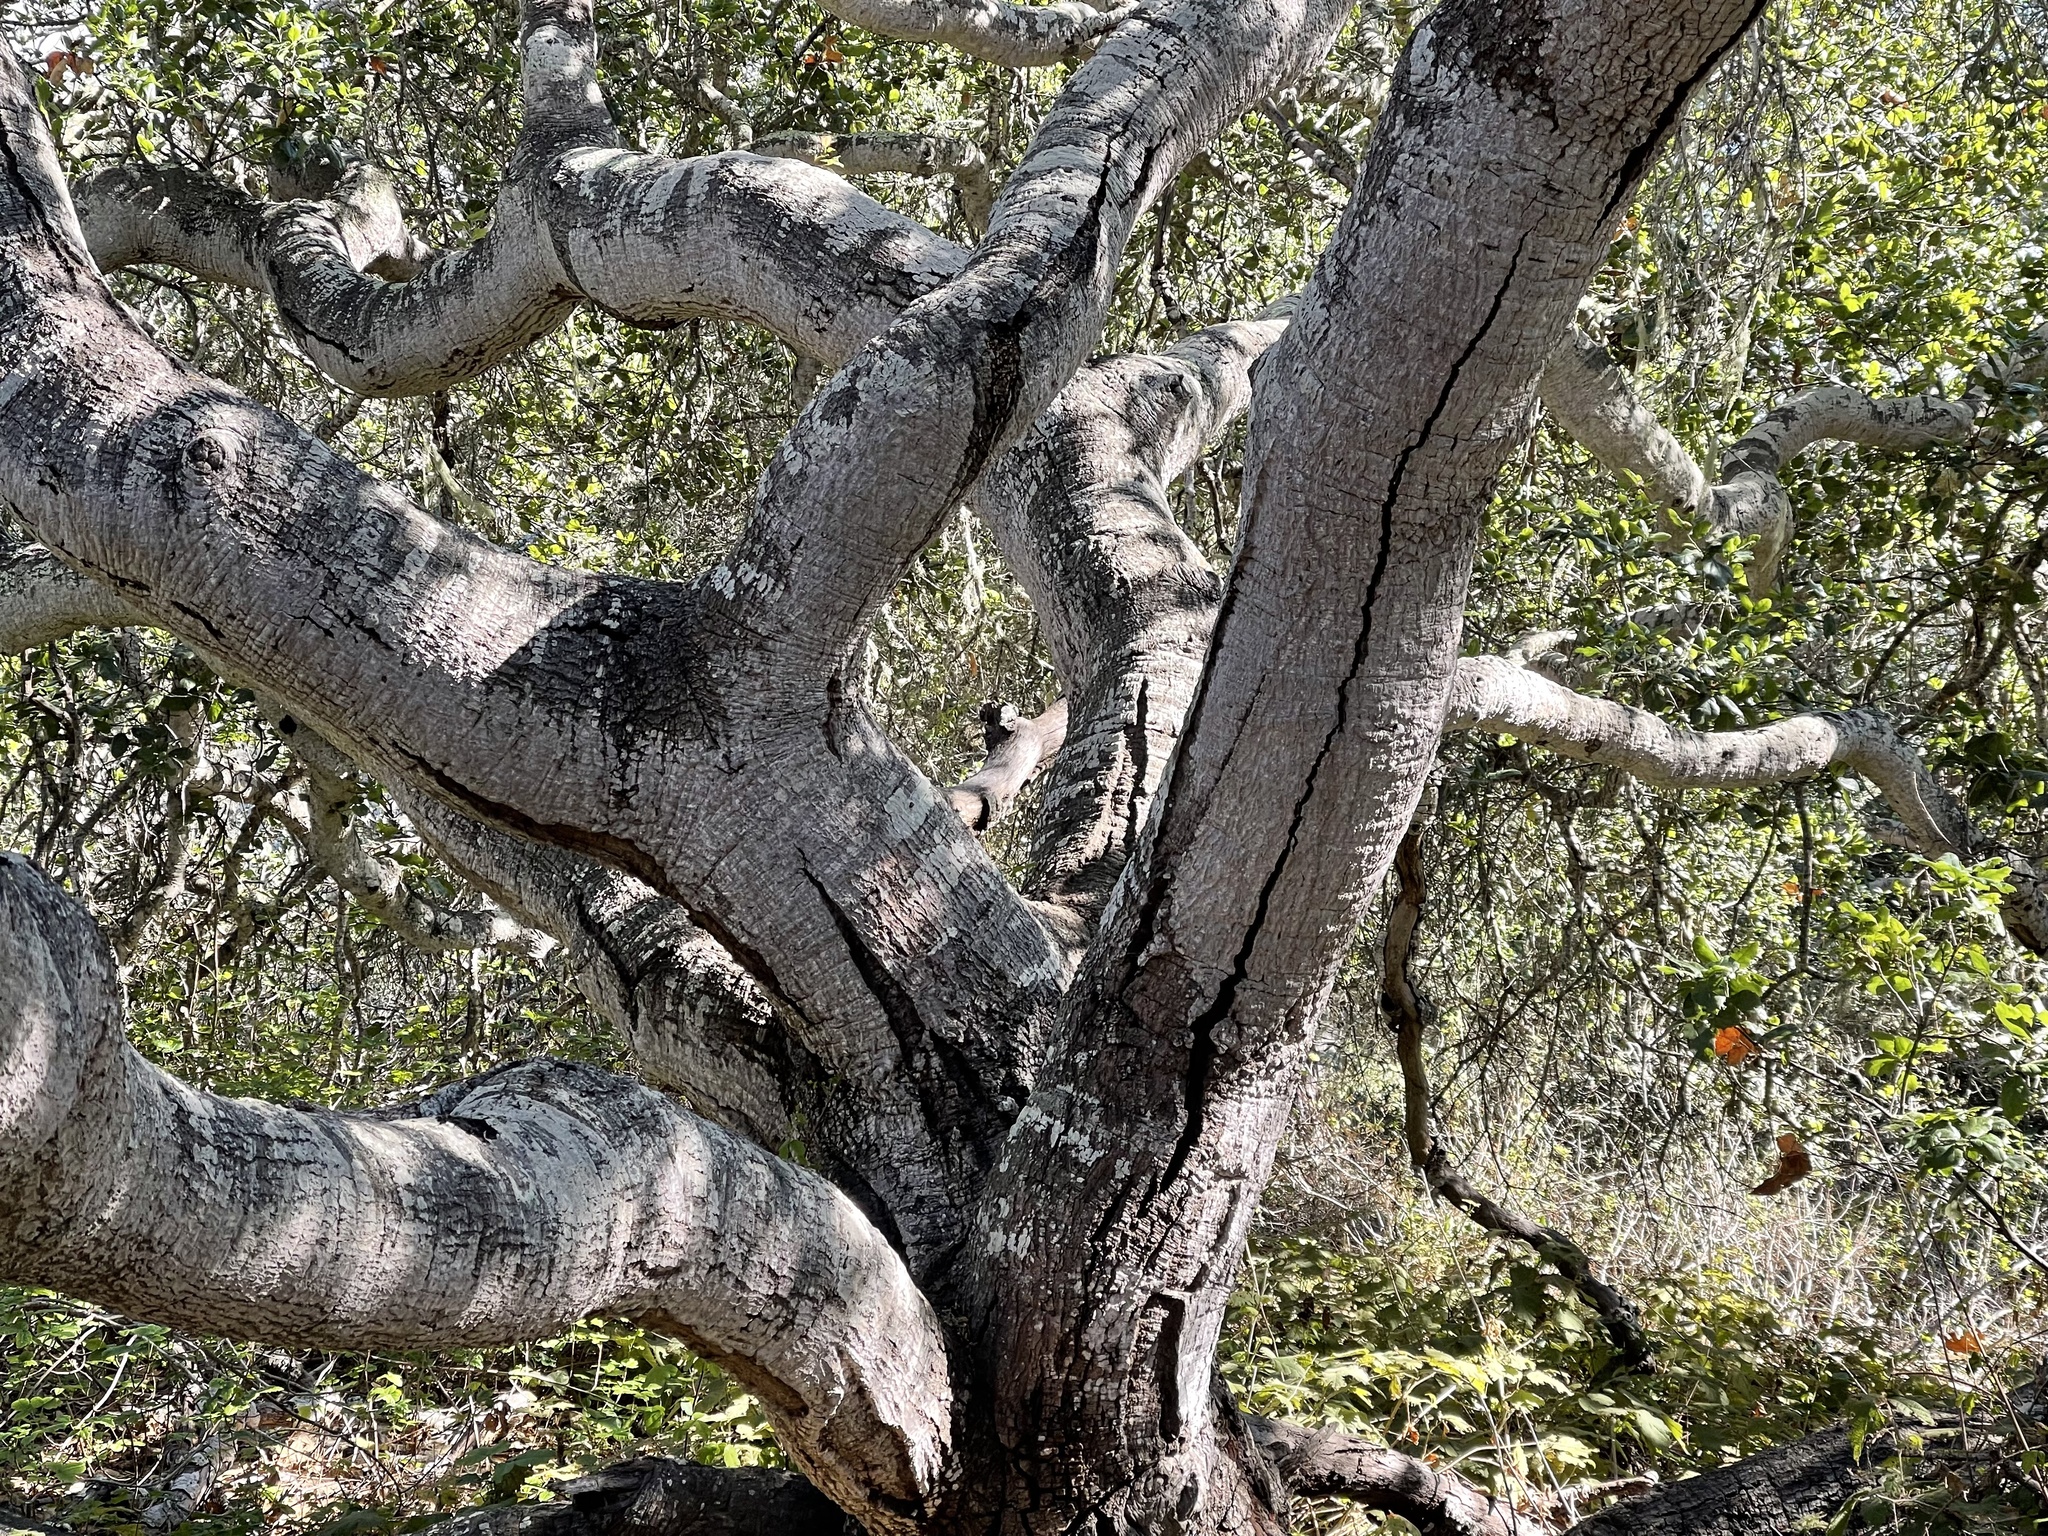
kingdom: Plantae
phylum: Tracheophyta
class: Magnoliopsida
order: Fagales
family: Fagaceae
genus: Quercus
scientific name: Quercus agrifolia
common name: California live oak
